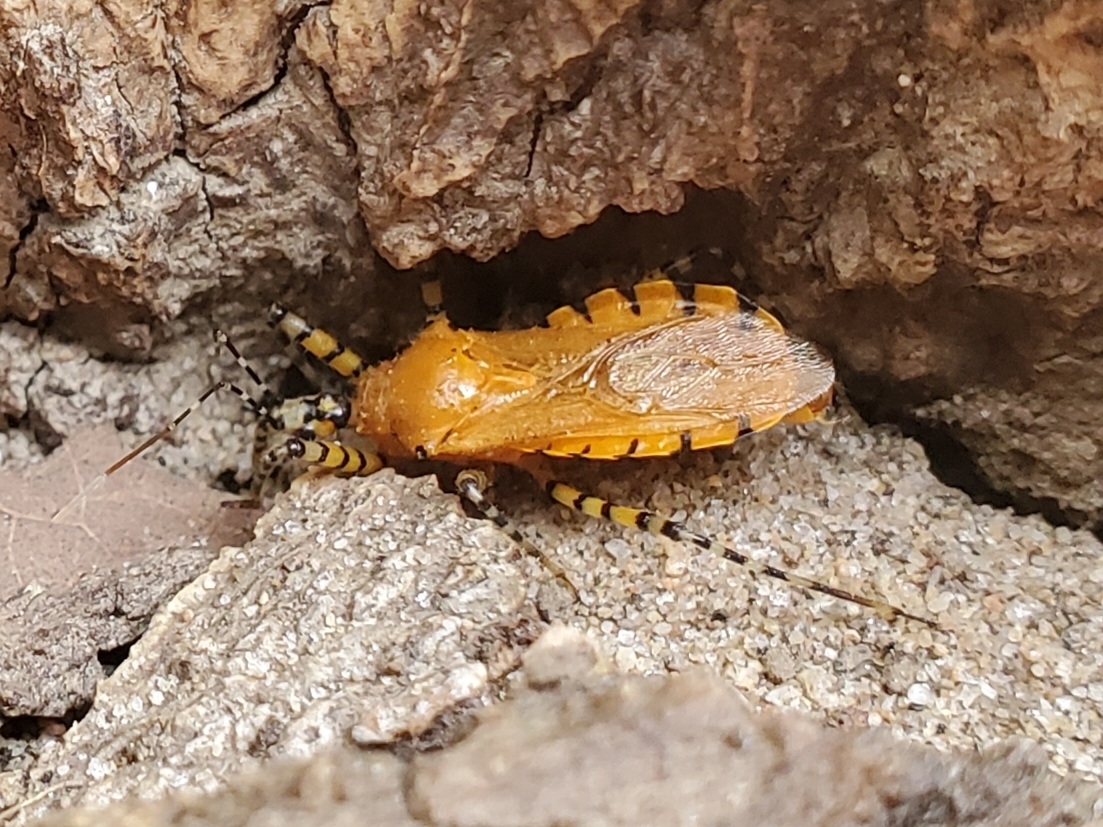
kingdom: Animalia
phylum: Arthropoda
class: Insecta
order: Hemiptera
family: Reduviidae
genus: Pselliopus
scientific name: Pselliopus barberi
